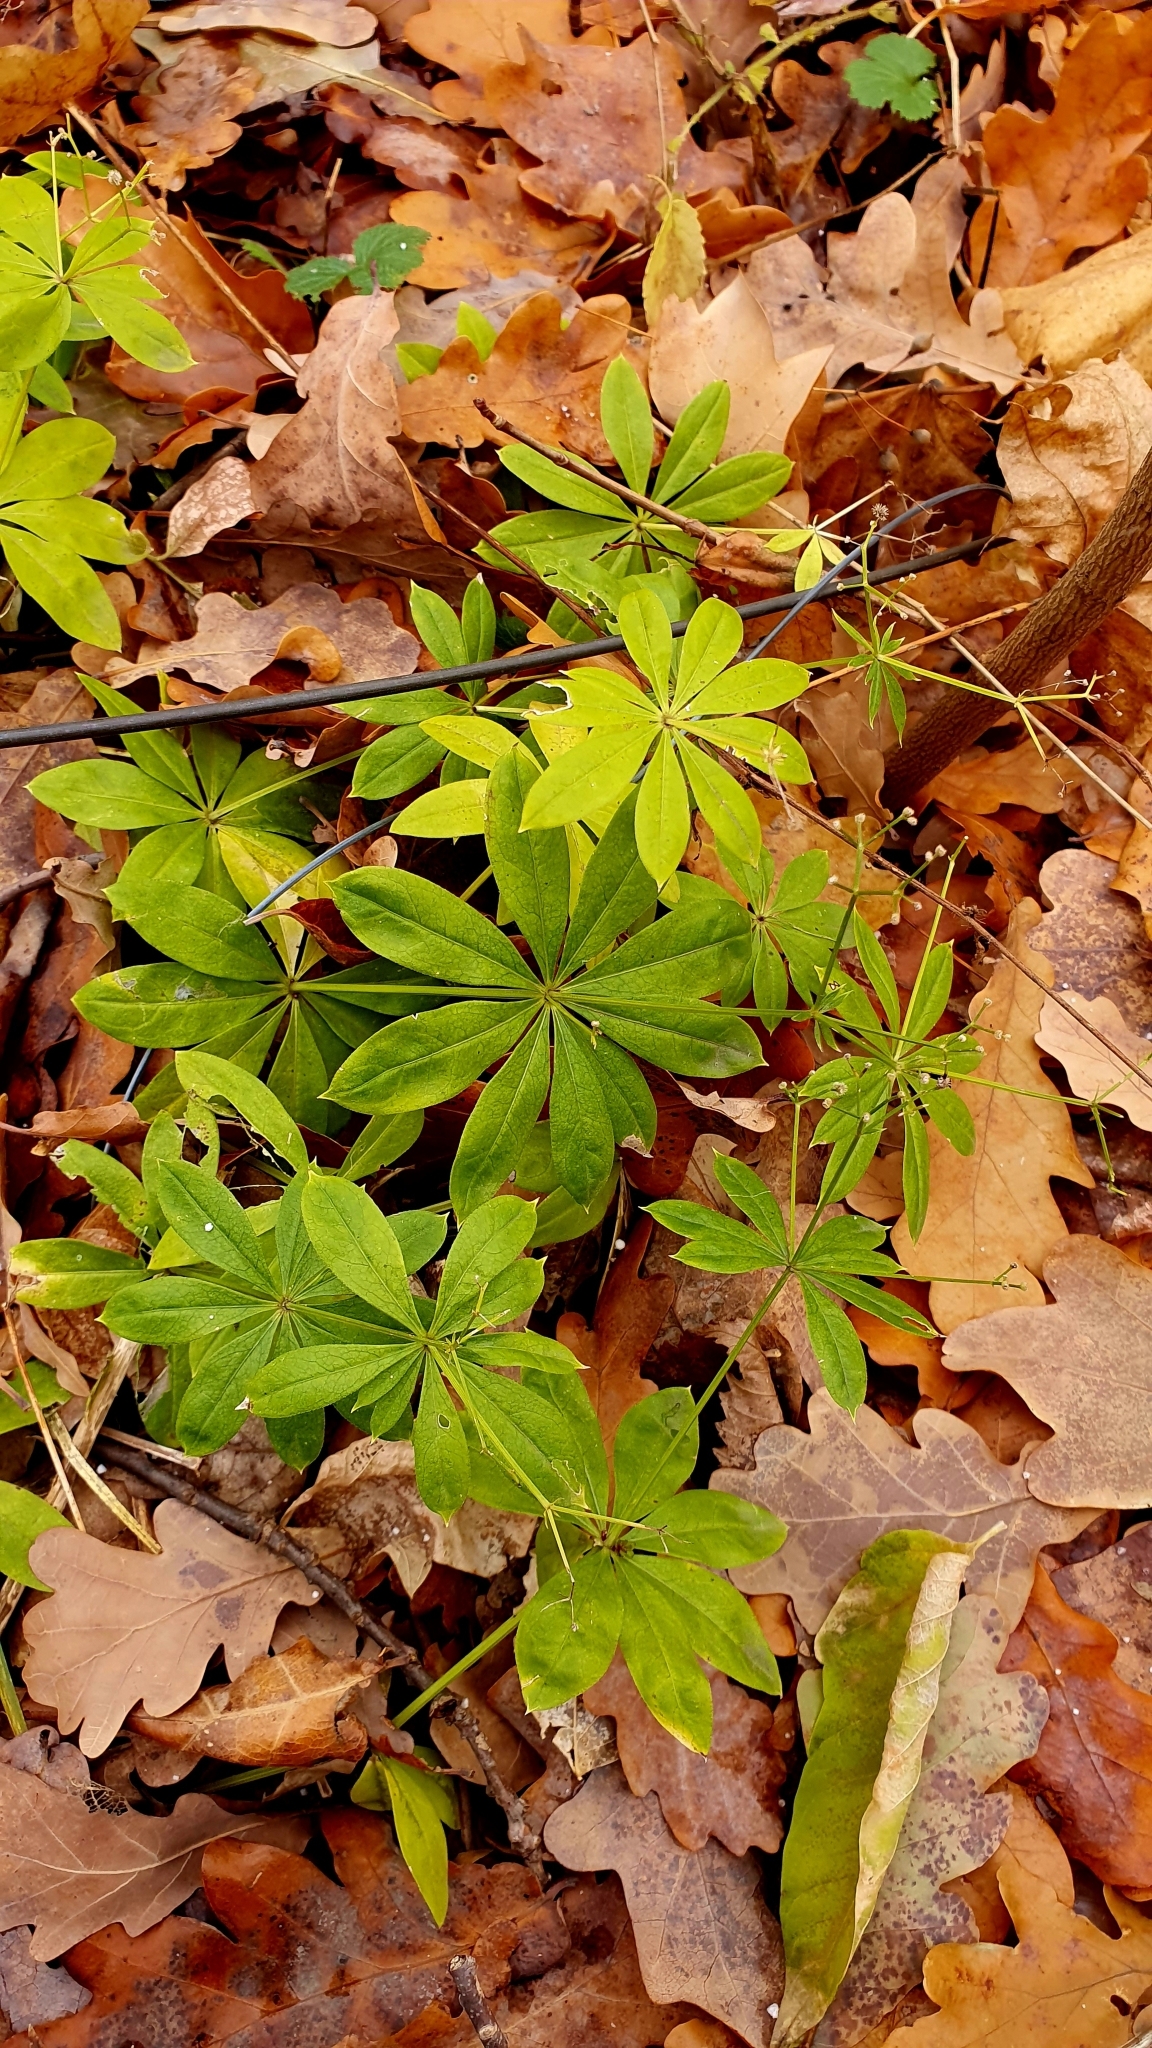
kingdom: Plantae
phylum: Tracheophyta
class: Magnoliopsida
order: Gentianales
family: Rubiaceae
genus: Galium
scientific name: Galium odoratum
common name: Sweet woodruff
